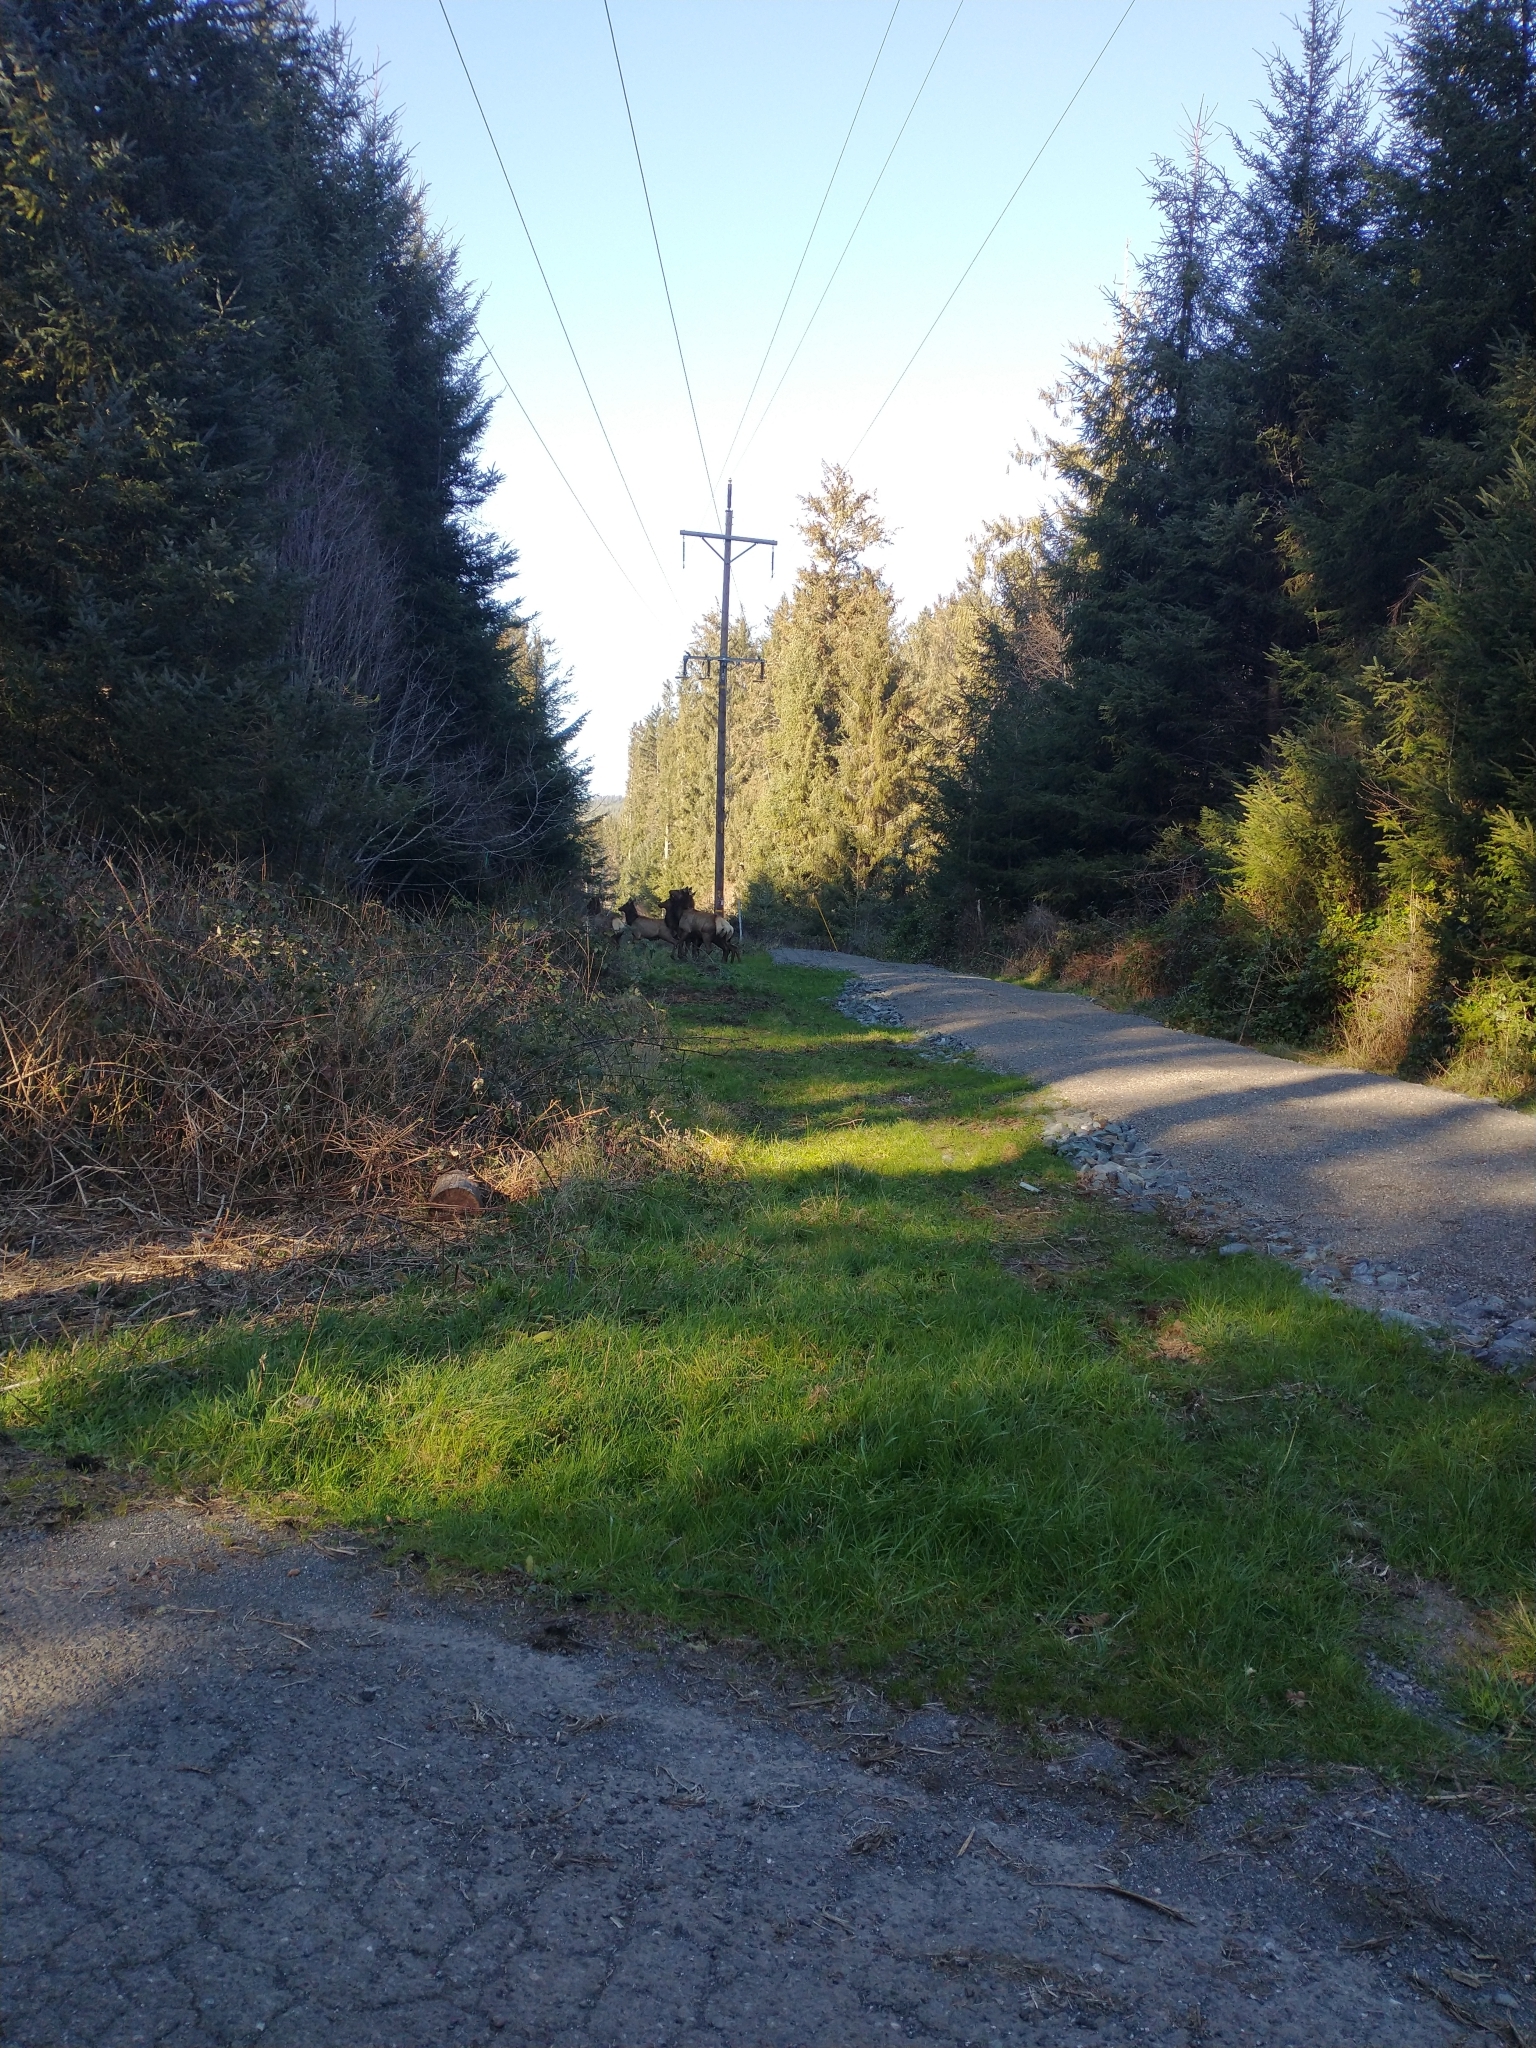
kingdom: Animalia
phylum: Chordata
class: Mammalia
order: Artiodactyla
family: Cervidae
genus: Cervus
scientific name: Cervus elaphus
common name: Red deer
